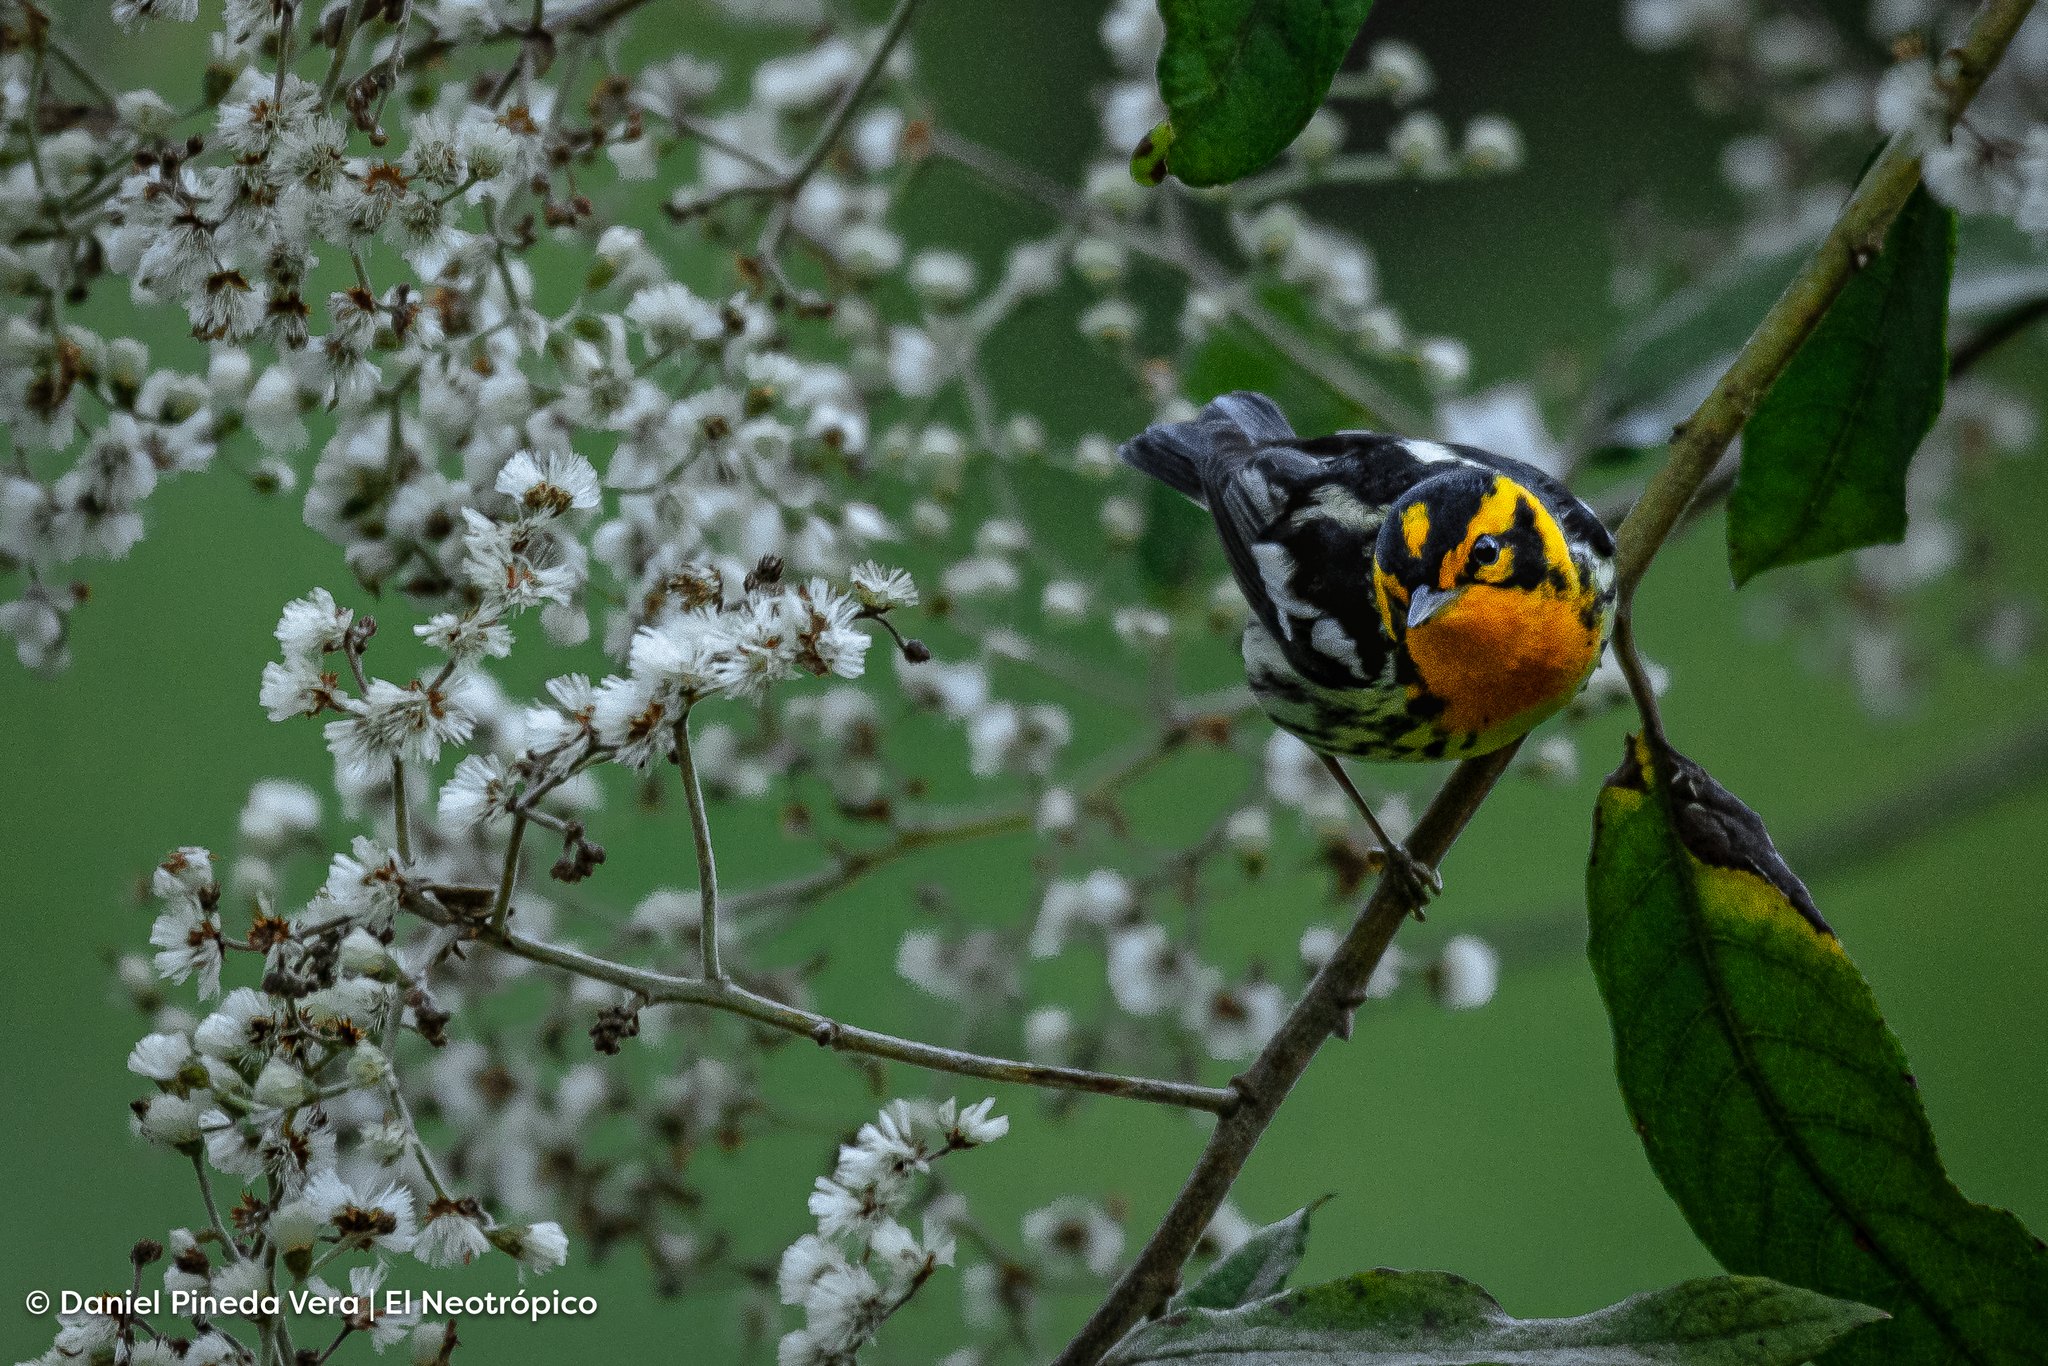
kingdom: Animalia
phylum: Chordata
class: Aves
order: Passeriformes
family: Parulidae
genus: Setophaga
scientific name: Setophaga fusca
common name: Blackburnian warbler
